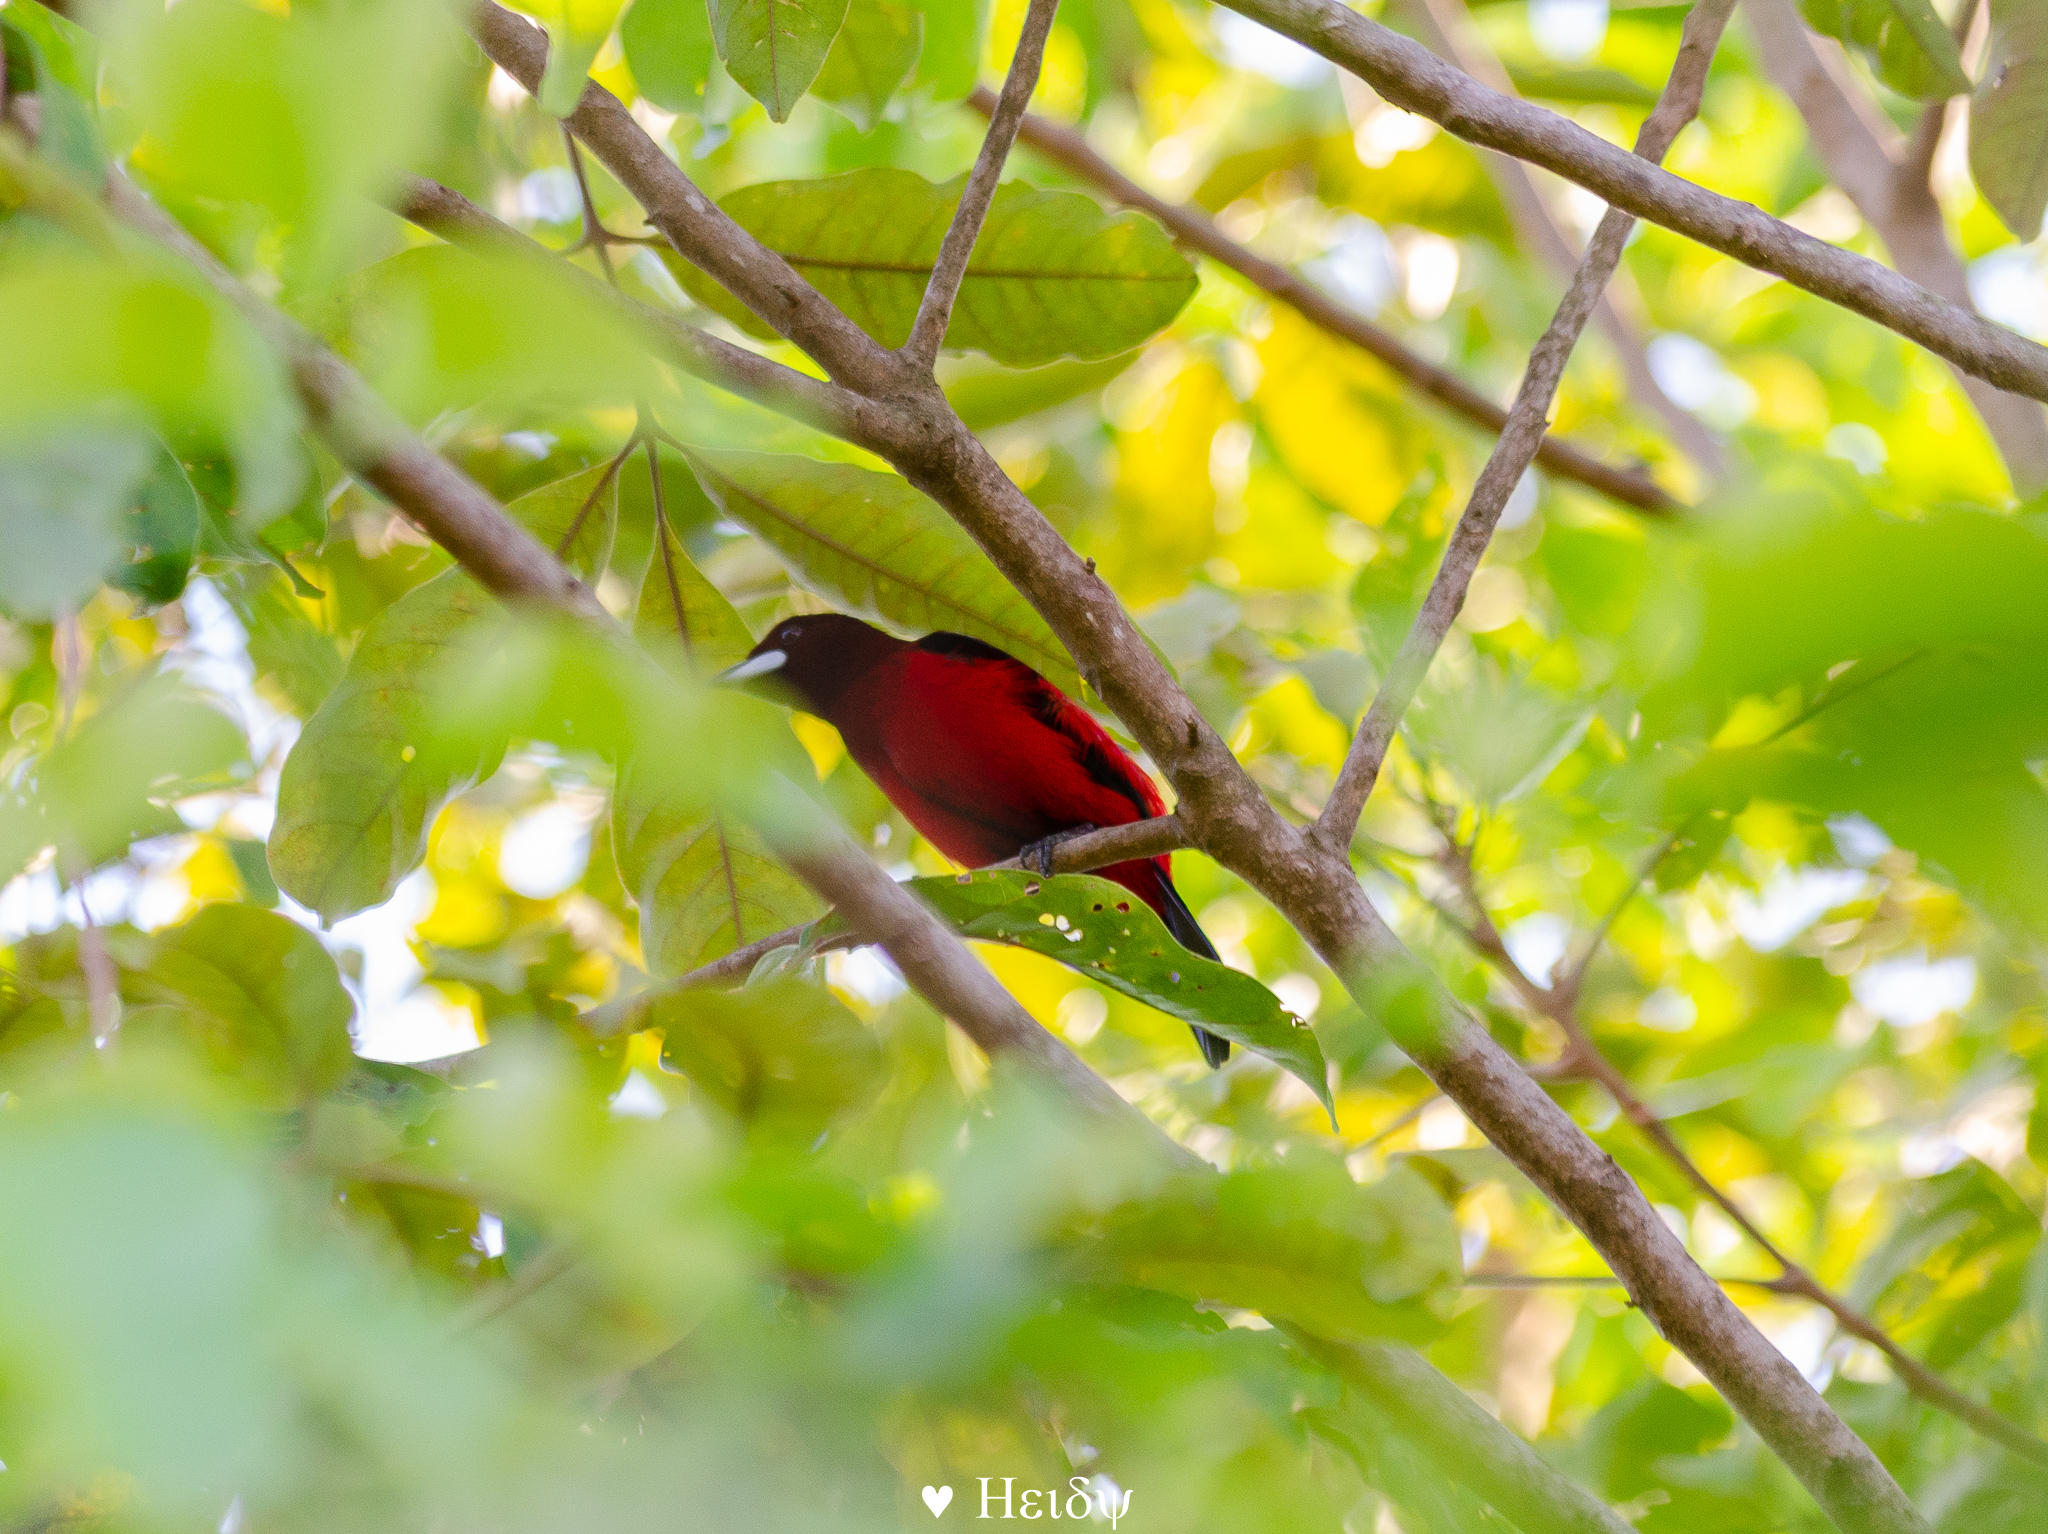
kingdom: Animalia
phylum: Chordata
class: Aves
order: Passeriformes
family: Thraupidae
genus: Ramphocelus
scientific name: Ramphocelus dimidiatus
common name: Crimson-backed tanager
